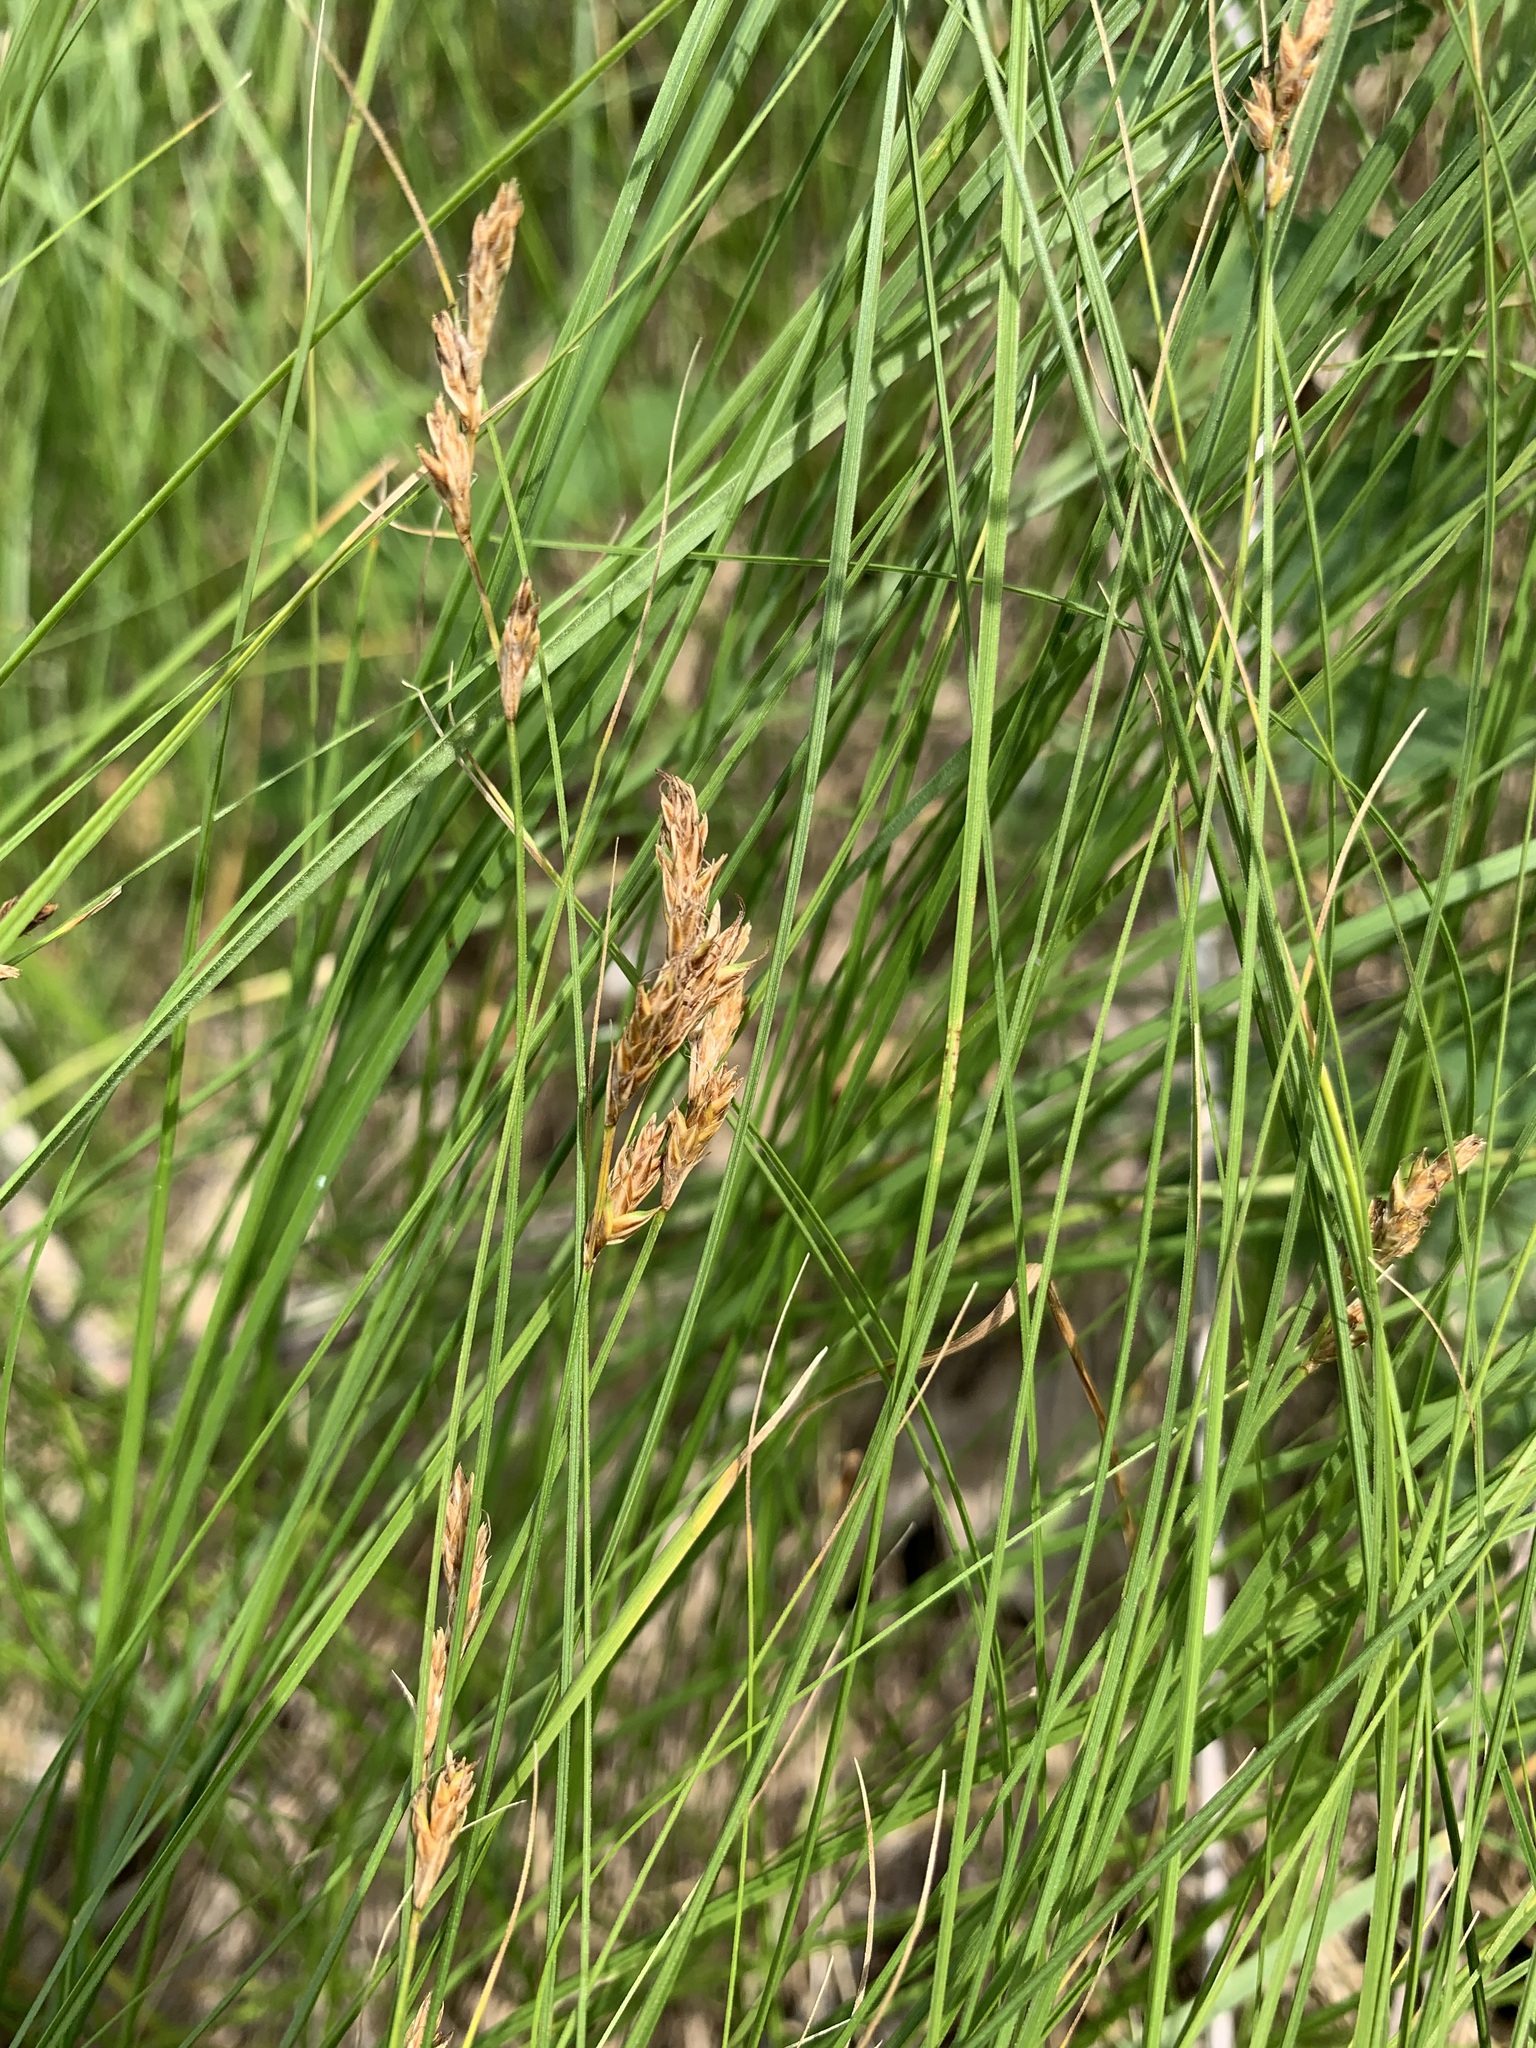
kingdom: Plantae
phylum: Tracheophyta
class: Liliopsida
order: Poales
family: Cyperaceae
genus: Carex
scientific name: Carex praecox
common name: Early sedge
